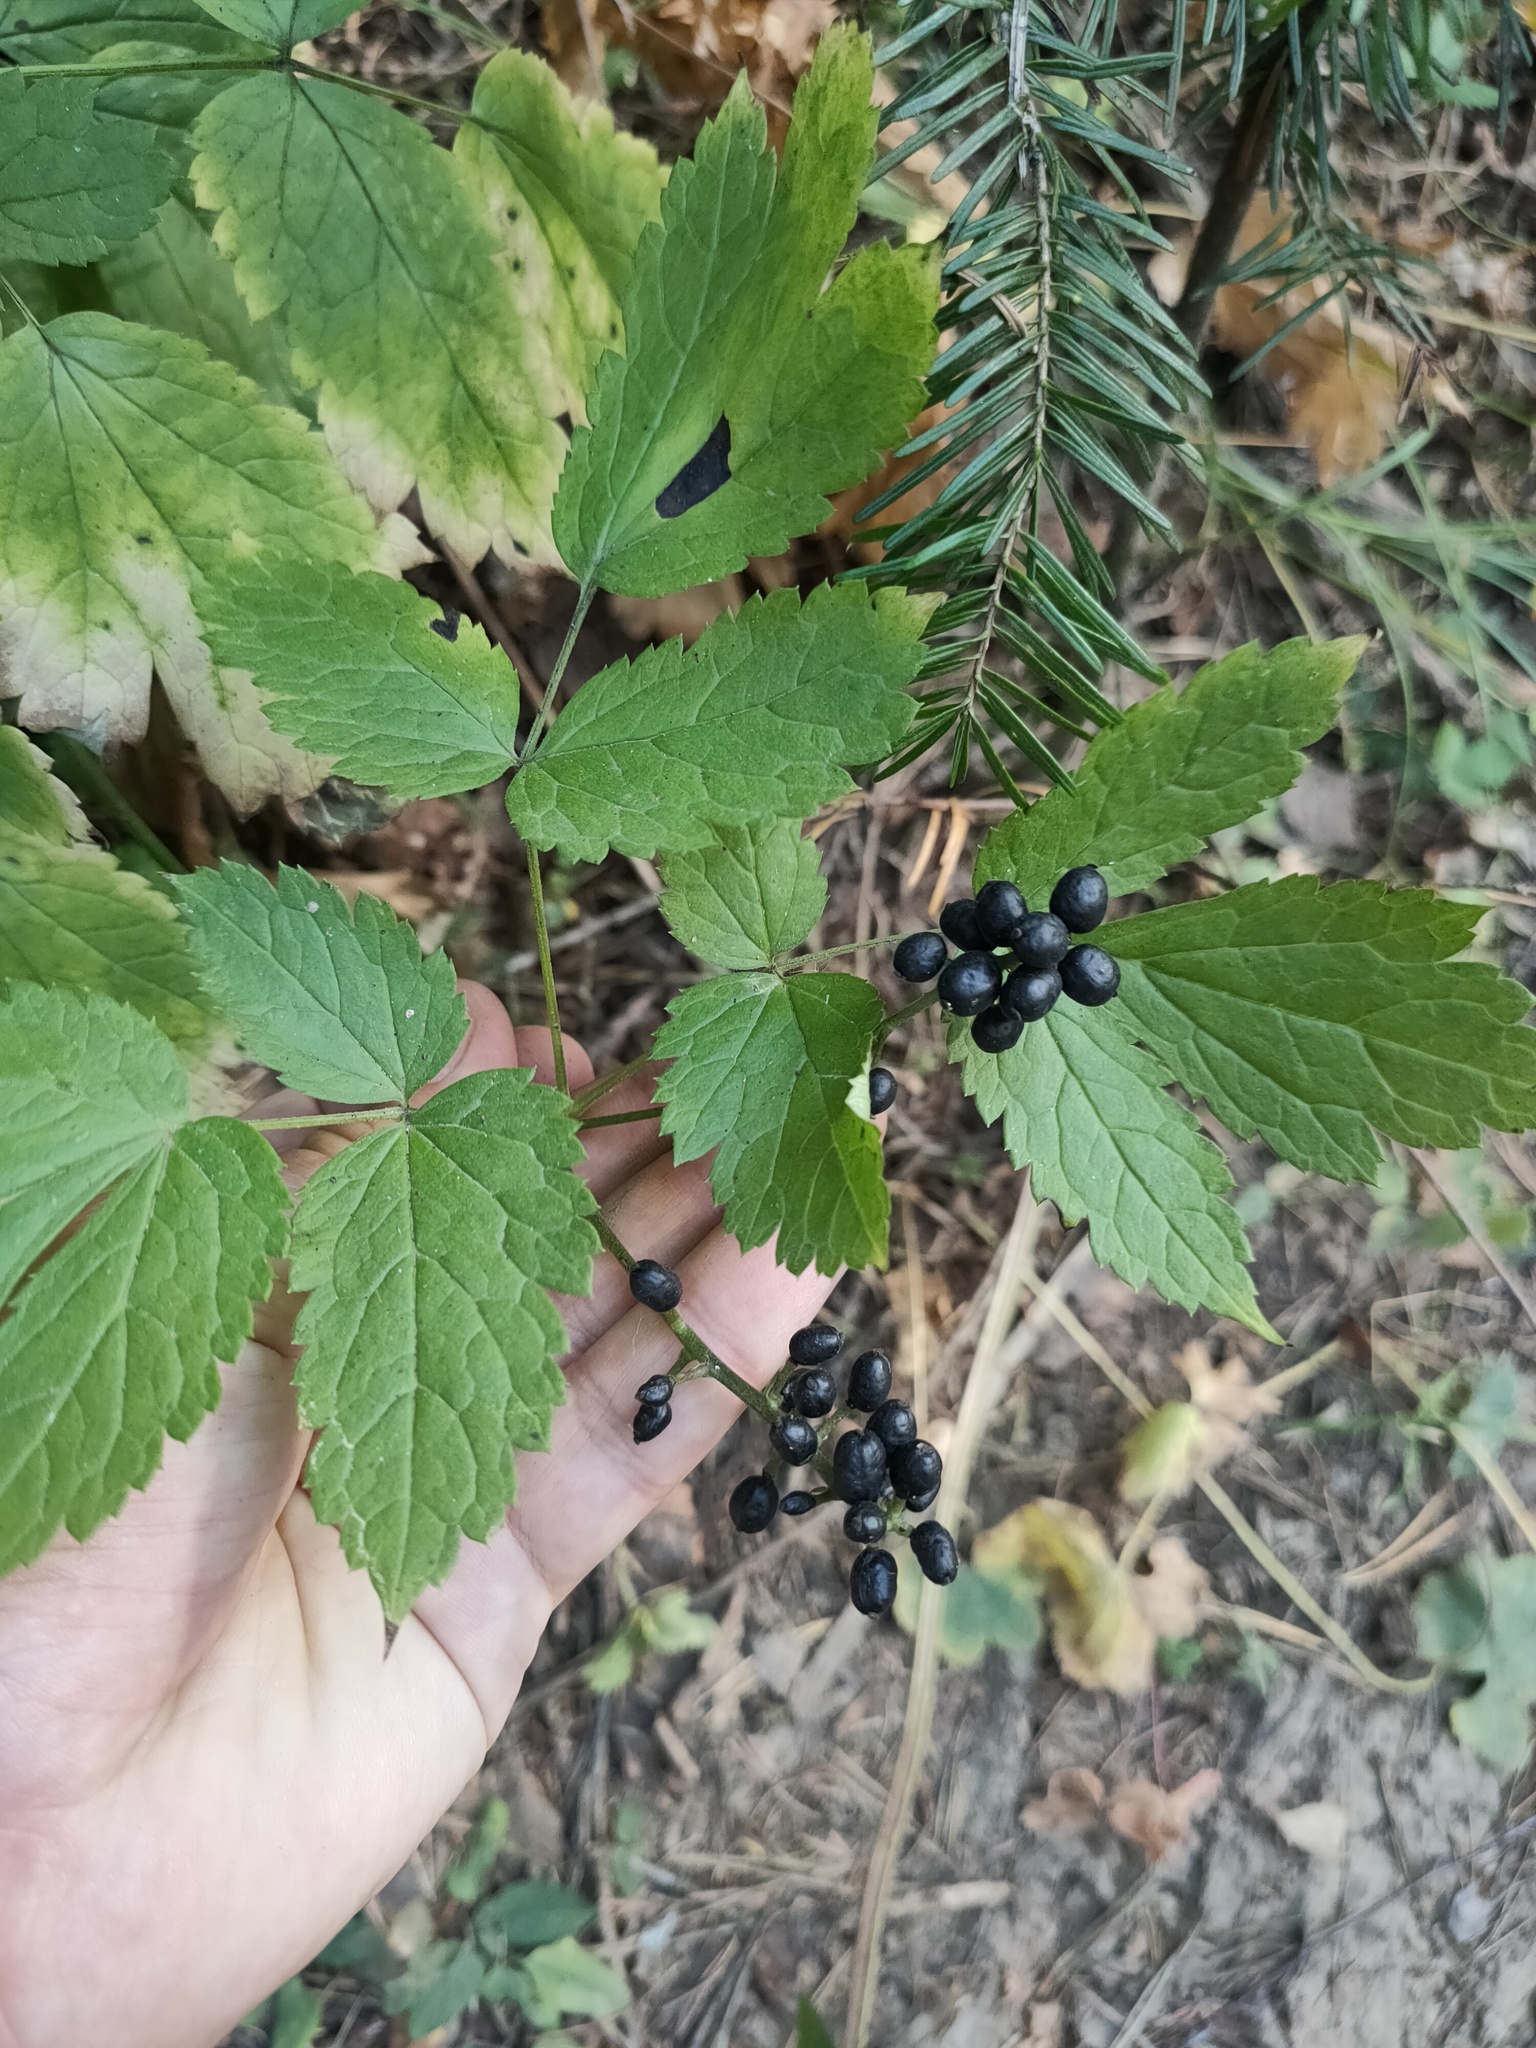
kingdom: Plantae
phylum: Tracheophyta
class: Magnoliopsida
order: Ranunculales
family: Ranunculaceae
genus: Actaea
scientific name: Actaea spicata
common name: Baneberry
